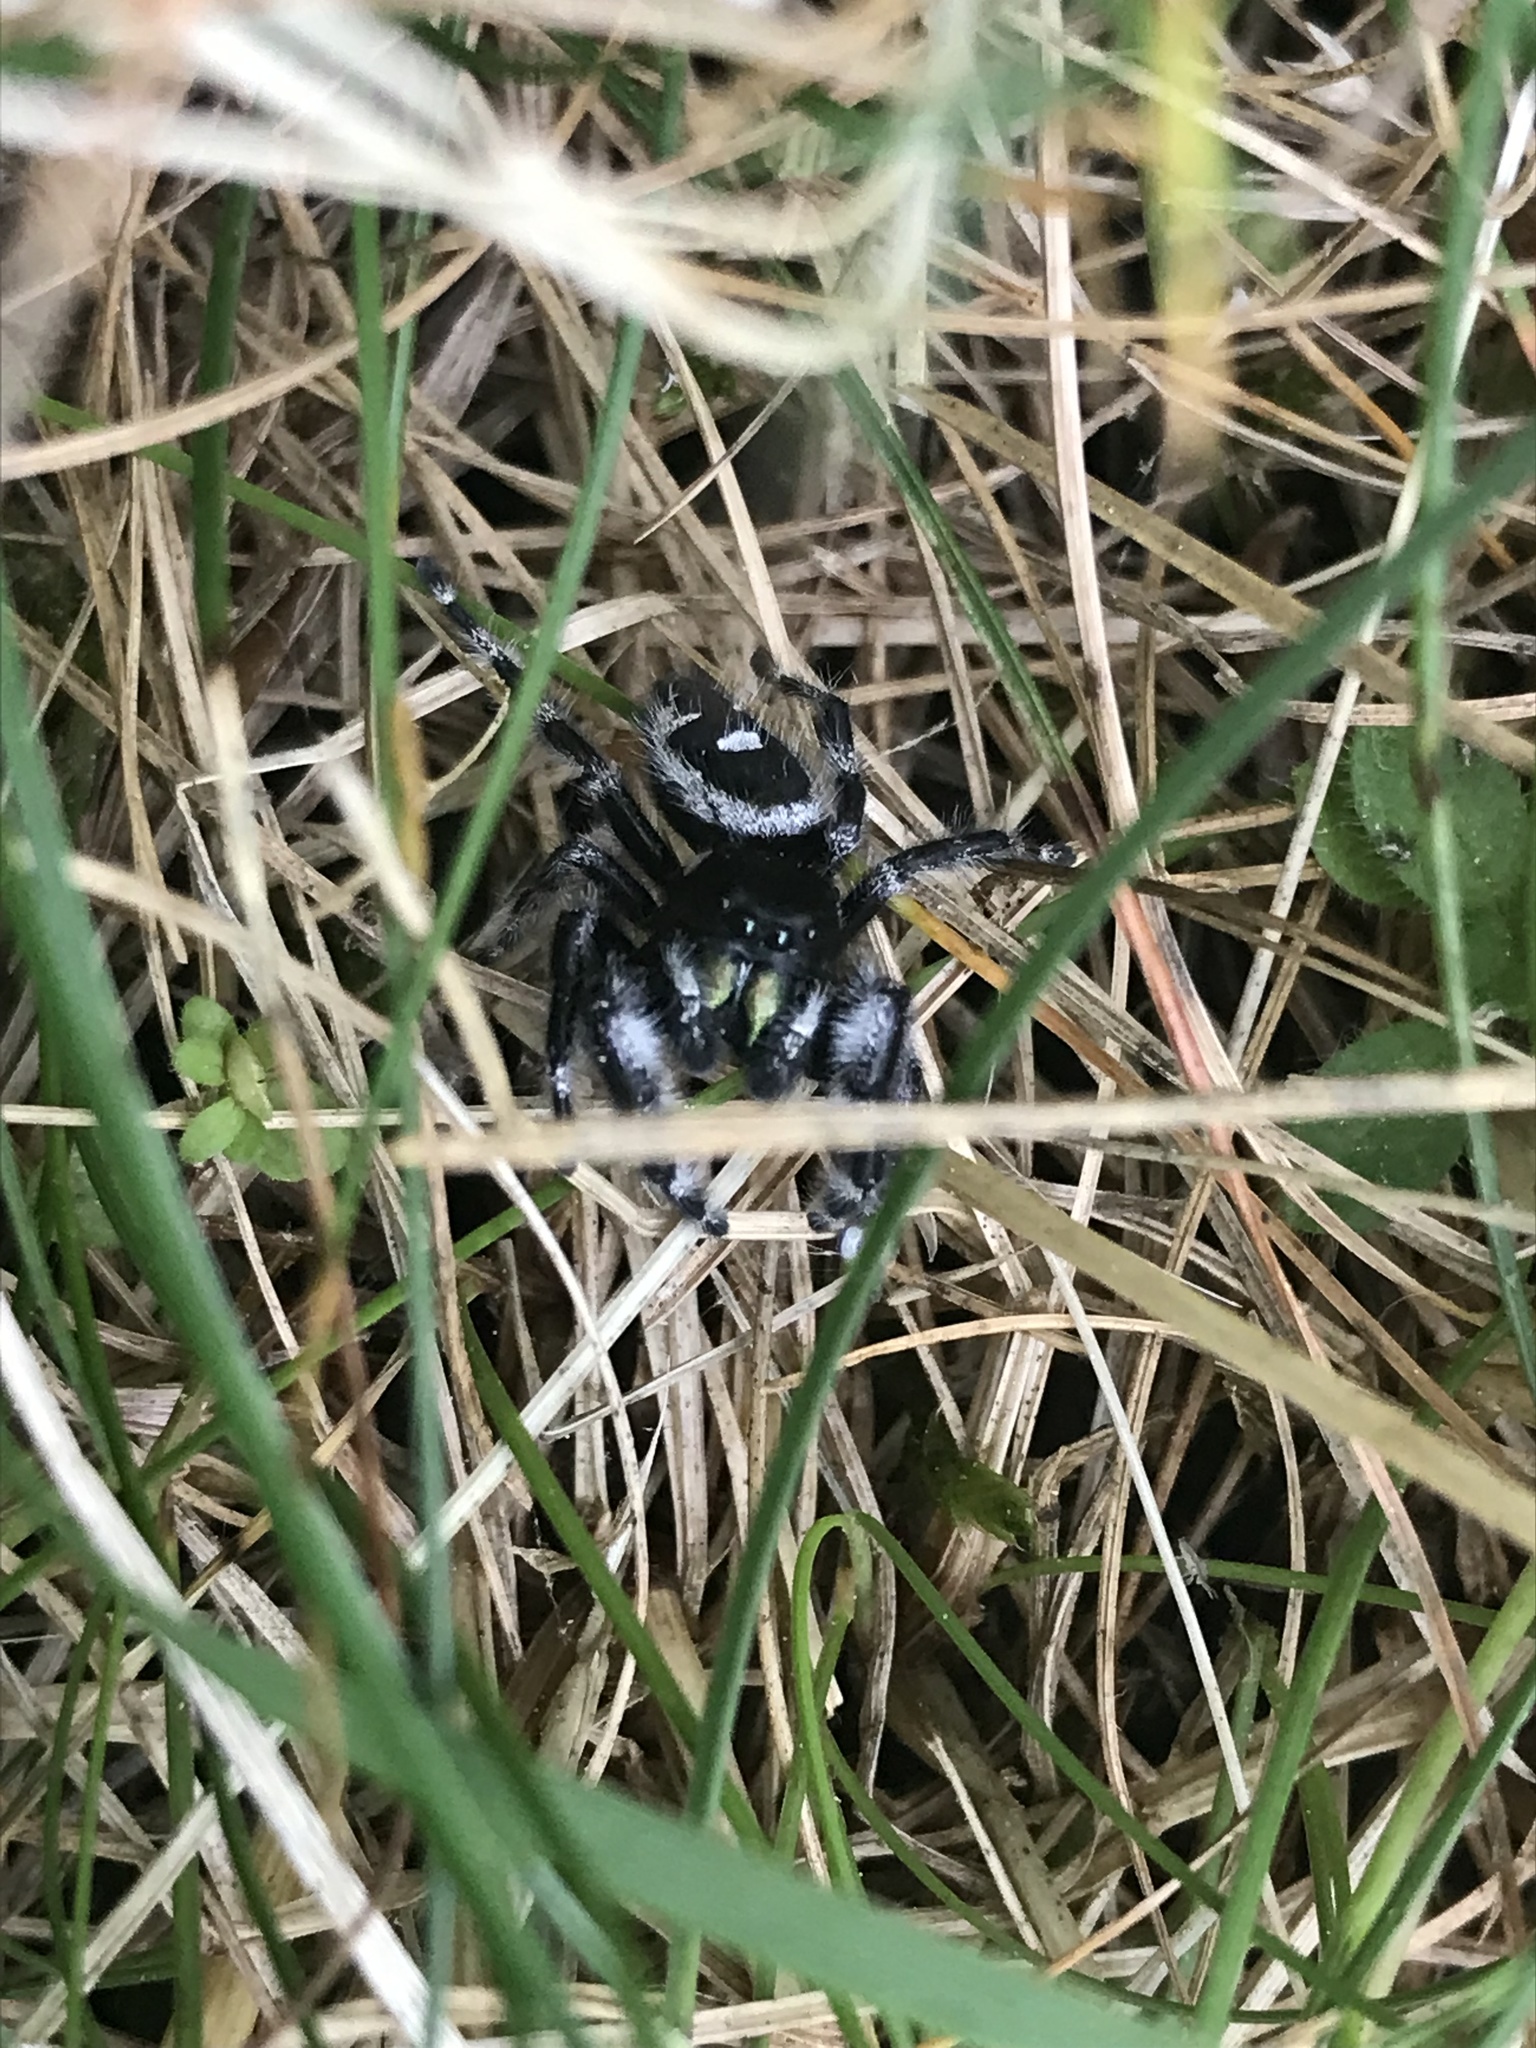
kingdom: Animalia
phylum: Arthropoda
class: Arachnida
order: Araneae
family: Salticidae
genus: Phidippus
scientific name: Phidippus audax
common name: Bold jumper
